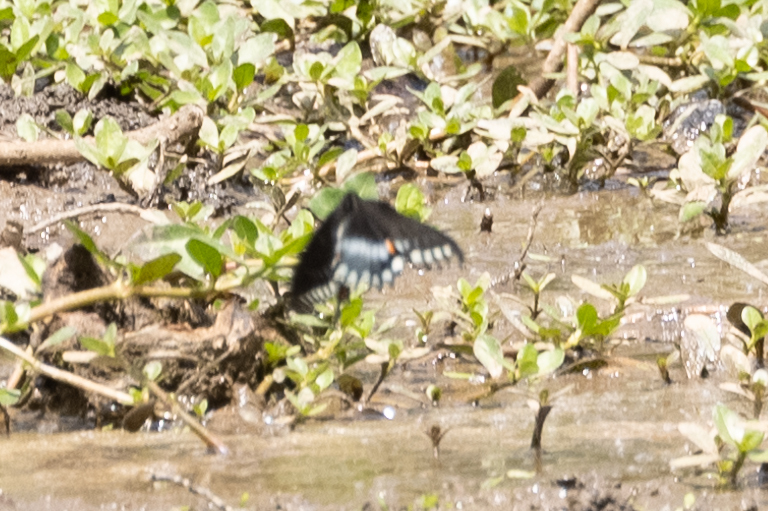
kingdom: Animalia
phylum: Arthropoda
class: Insecta
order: Lepidoptera
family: Papilionidae
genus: Papilio
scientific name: Papilio troilus
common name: Spicebush swallowtail
